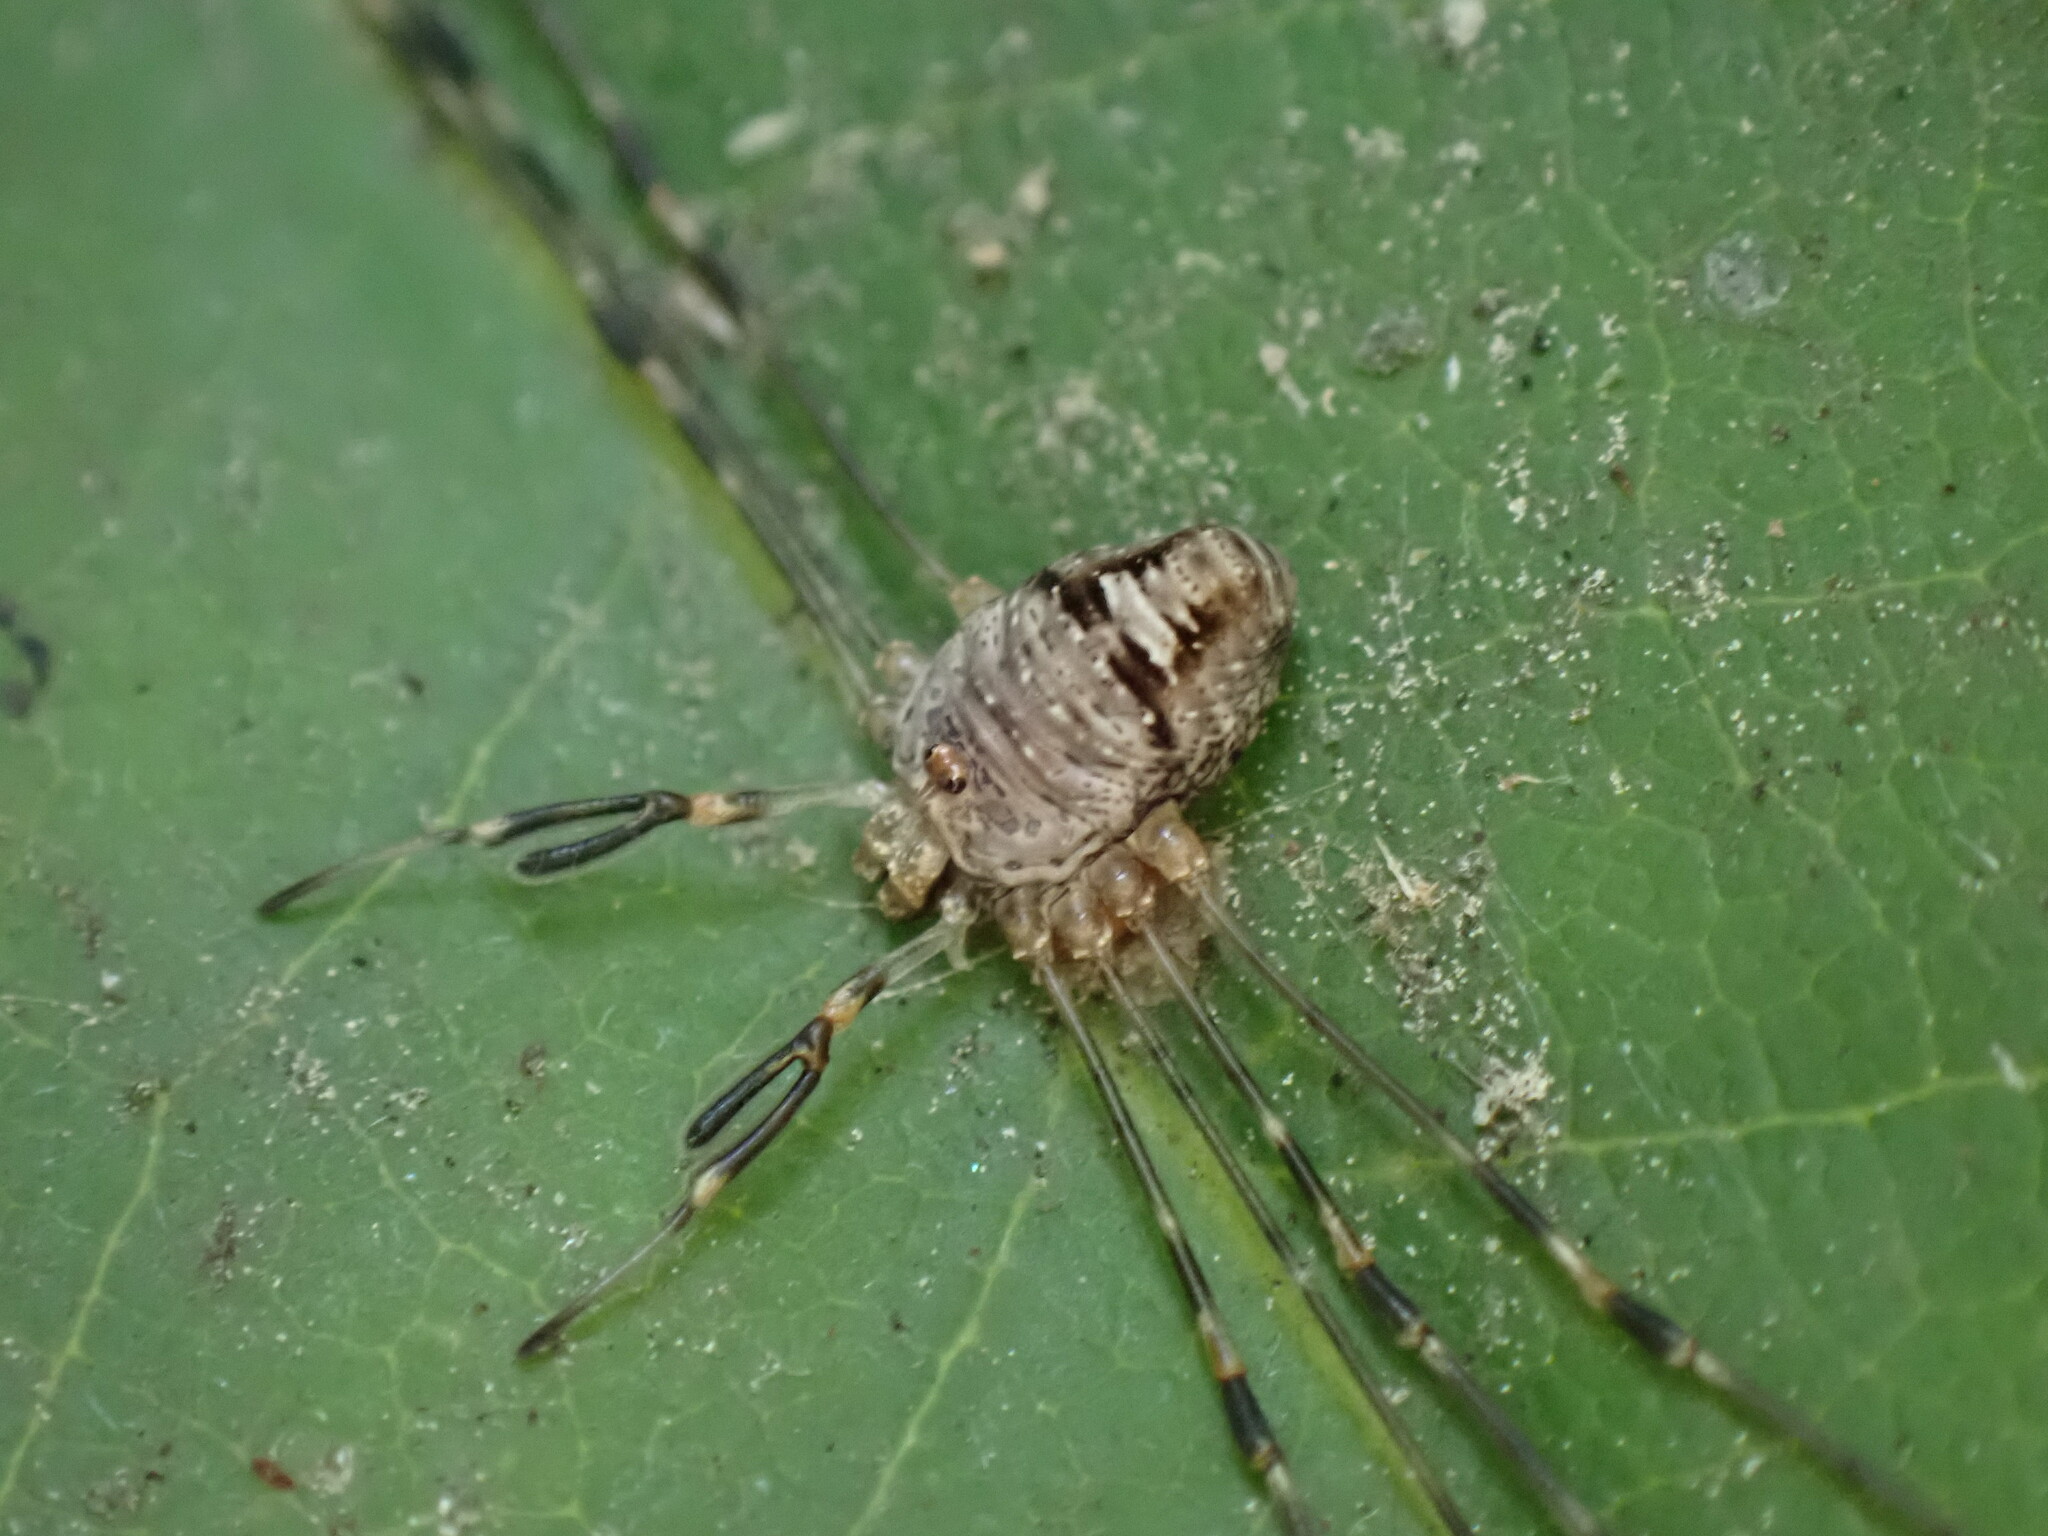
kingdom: Animalia
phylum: Arthropoda
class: Arachnida
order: Opiliones
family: Phalangiidae
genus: Dicranopalpus
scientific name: Dicranopalpus ramosus
